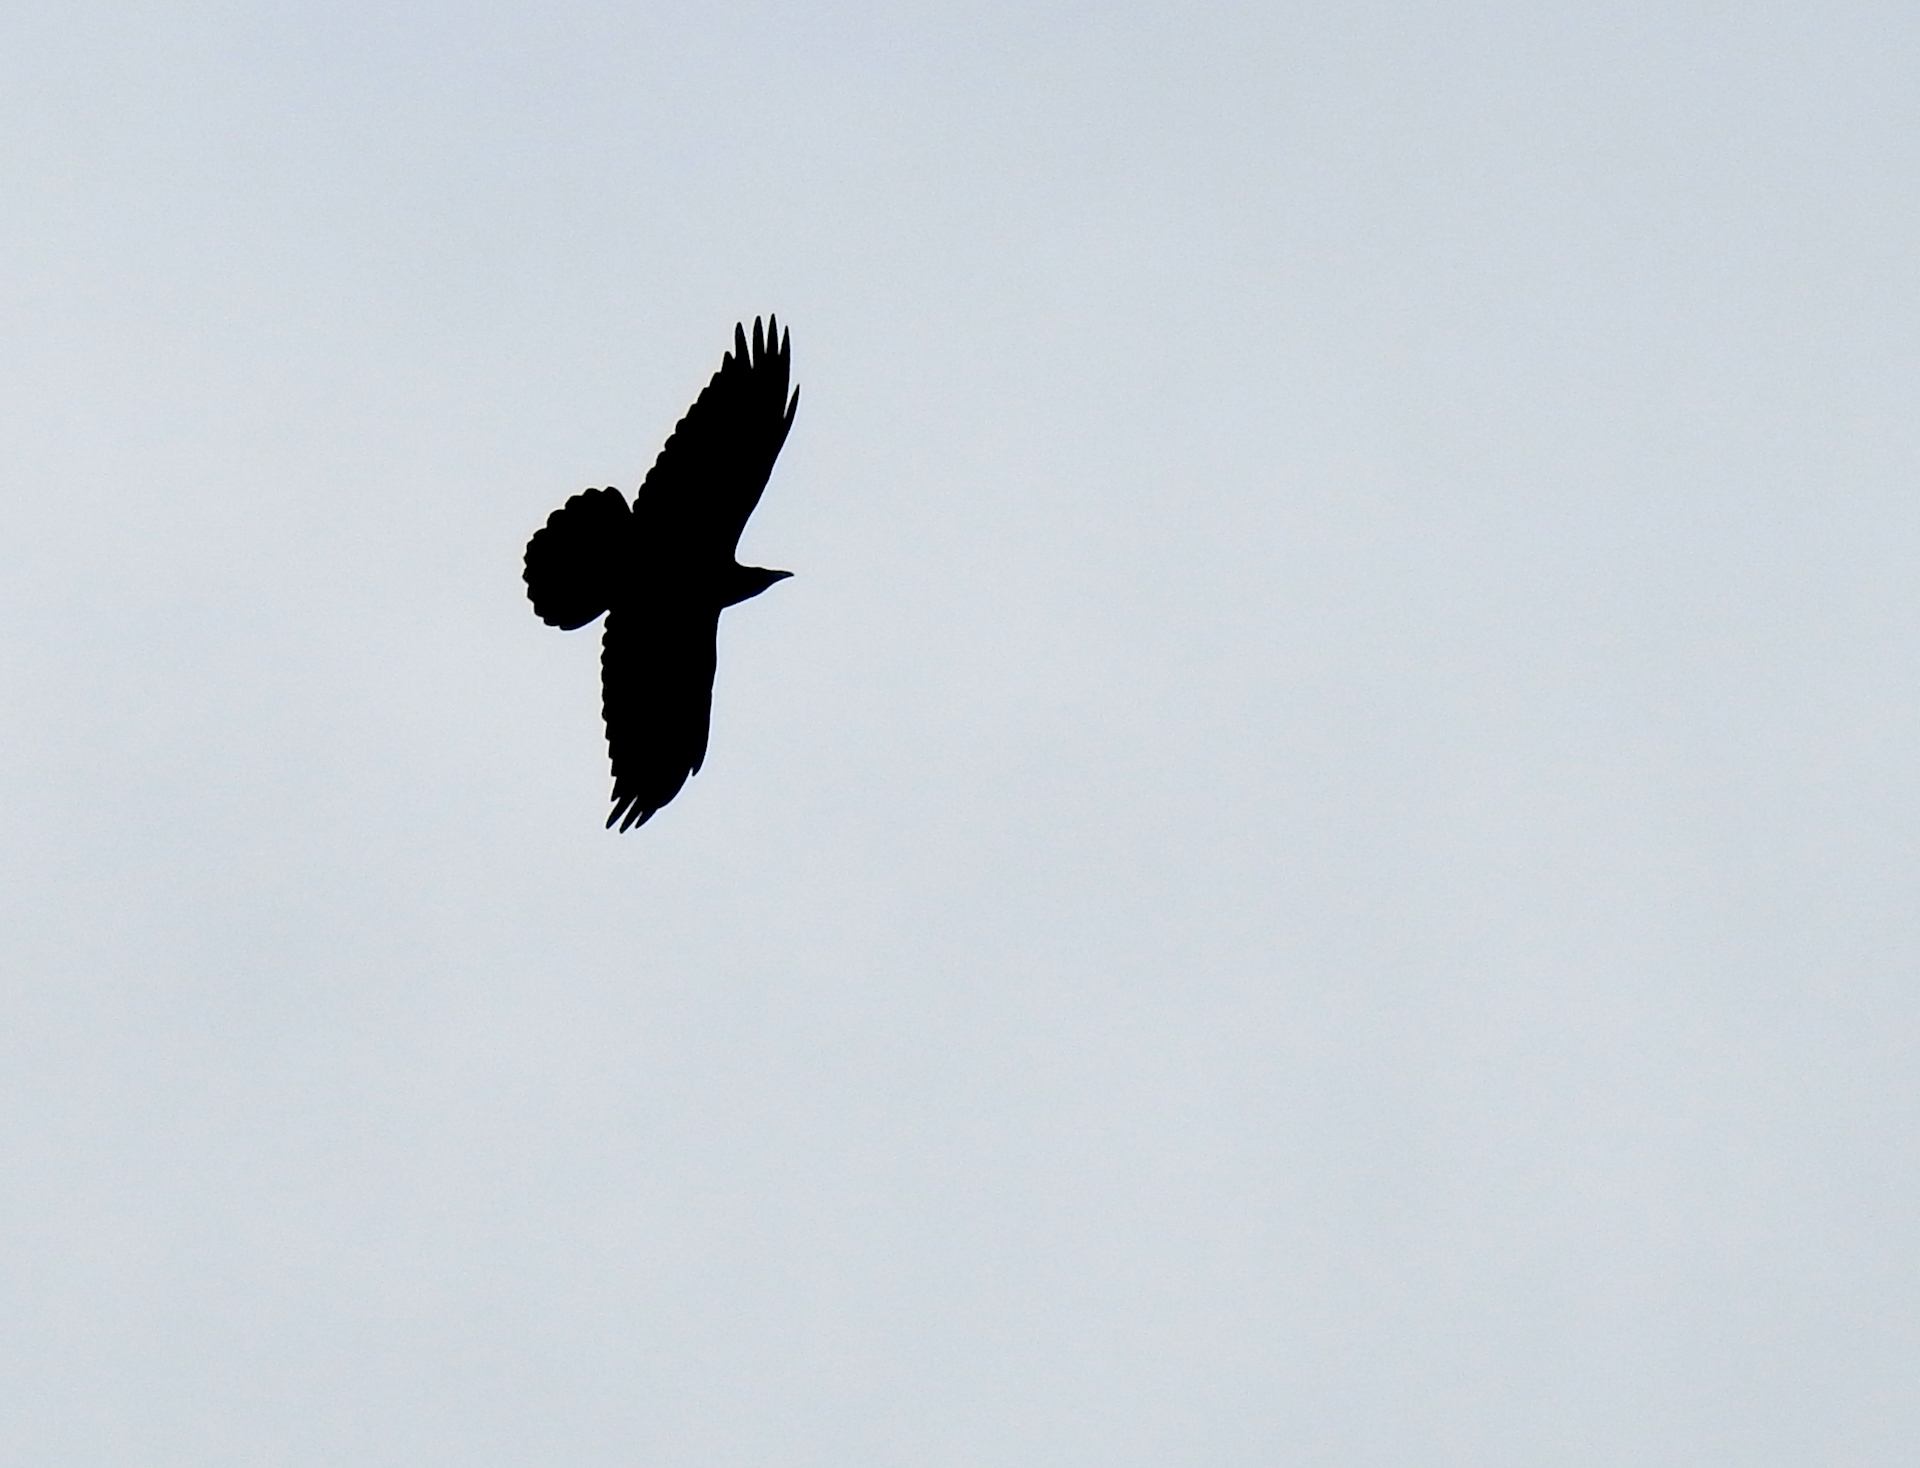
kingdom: Animalia
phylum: Chordata
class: Aves
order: Passeriformes
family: Corvidae
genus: Corvus
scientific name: Corvus corax
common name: Common raven
